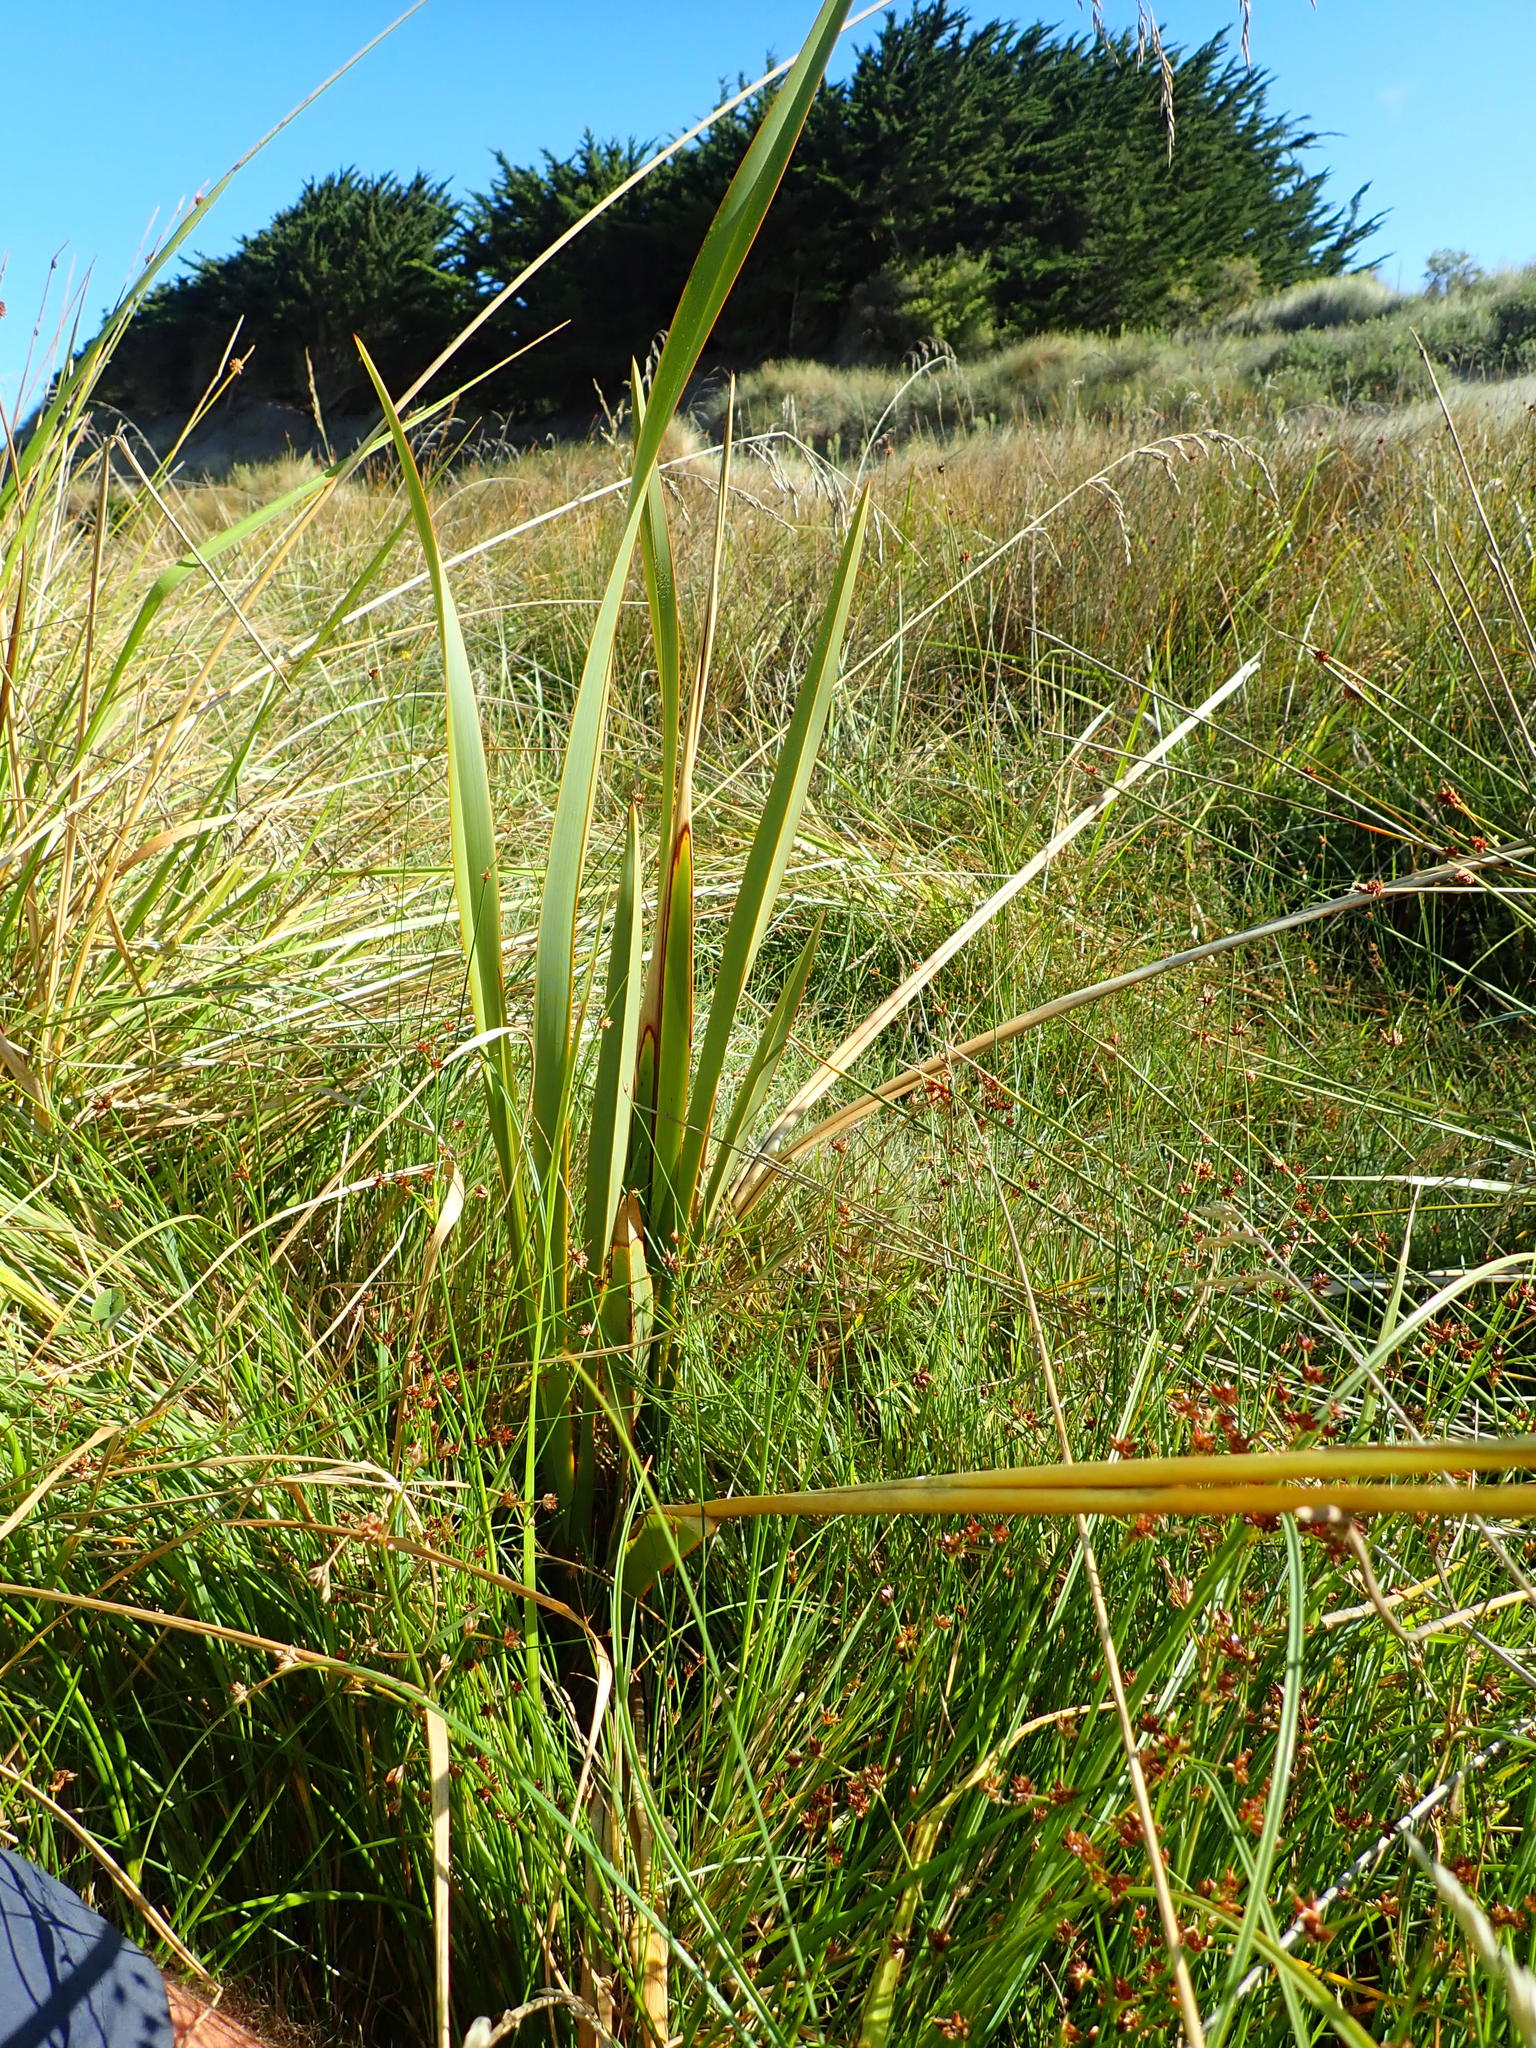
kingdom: Plantae
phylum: Tracheophyta
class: Liliopsida
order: Asparagales
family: Asphodelaceae
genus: Phormium
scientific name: Phormium tenax
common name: New zealand flax
